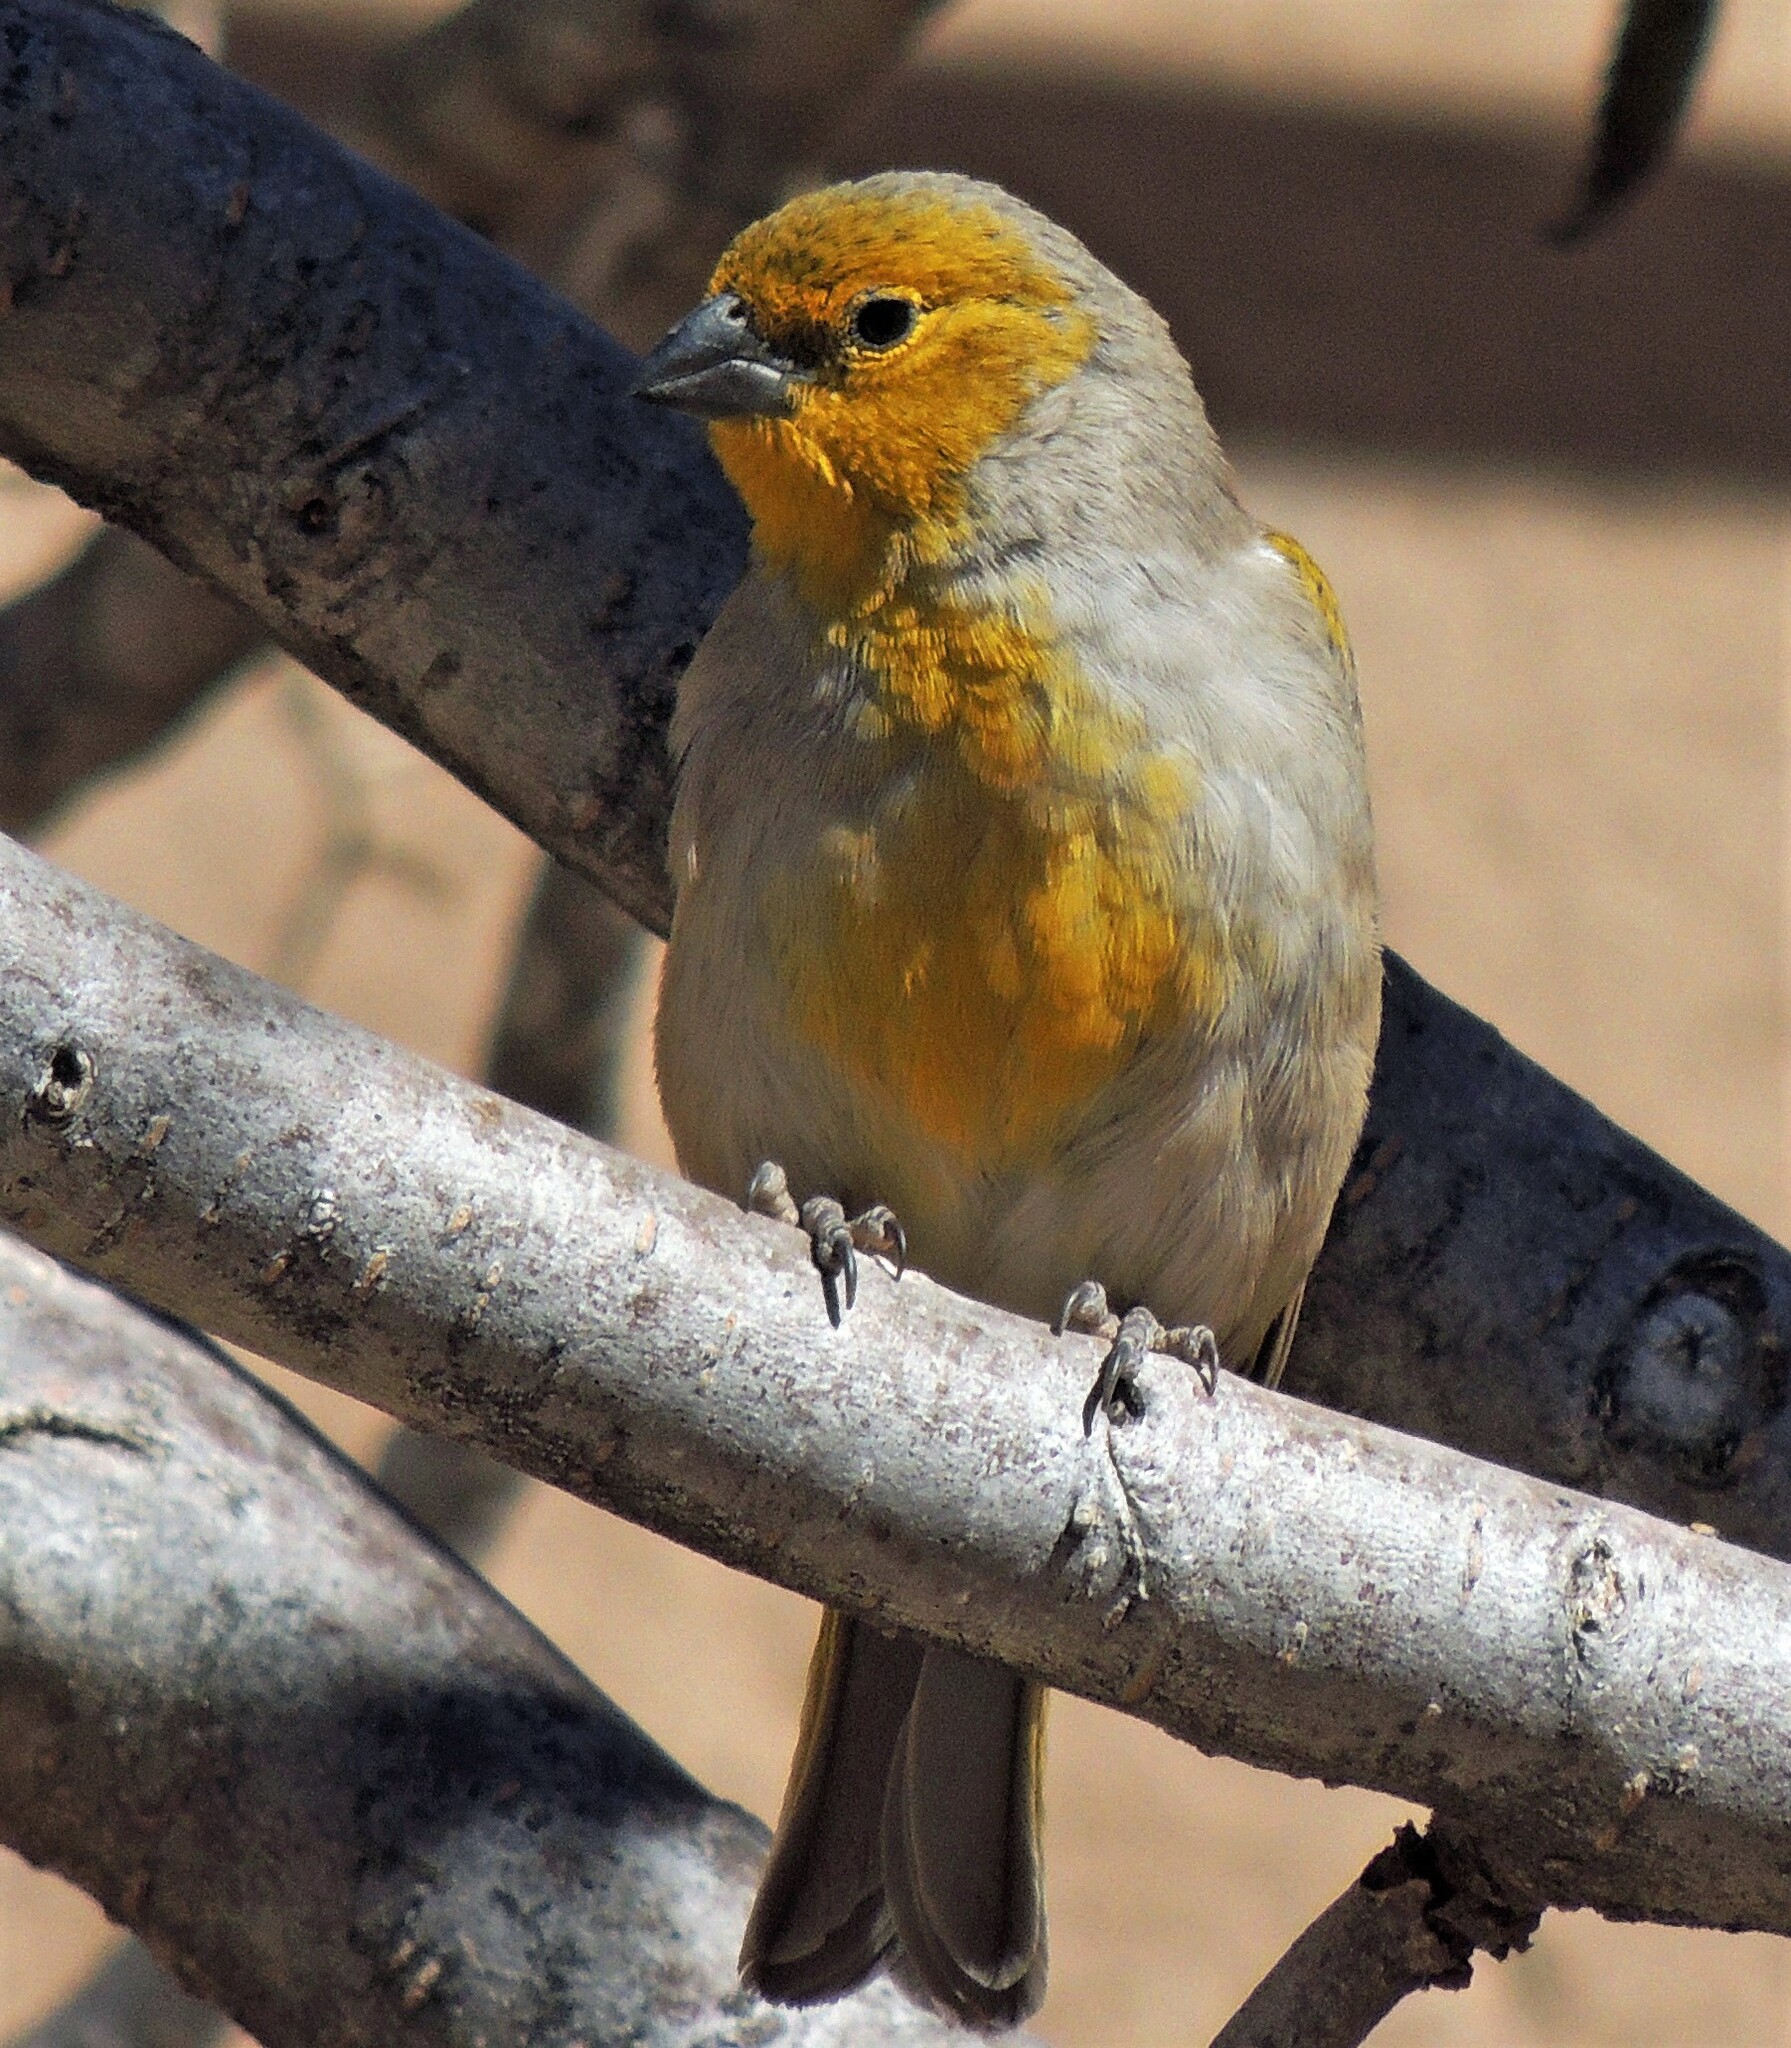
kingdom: Animalia
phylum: Chordata
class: Aves
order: Passeriformes
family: Thraupidae
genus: Sicalis
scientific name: Sicalis luteocephala
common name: Citron-headed yellow finch
